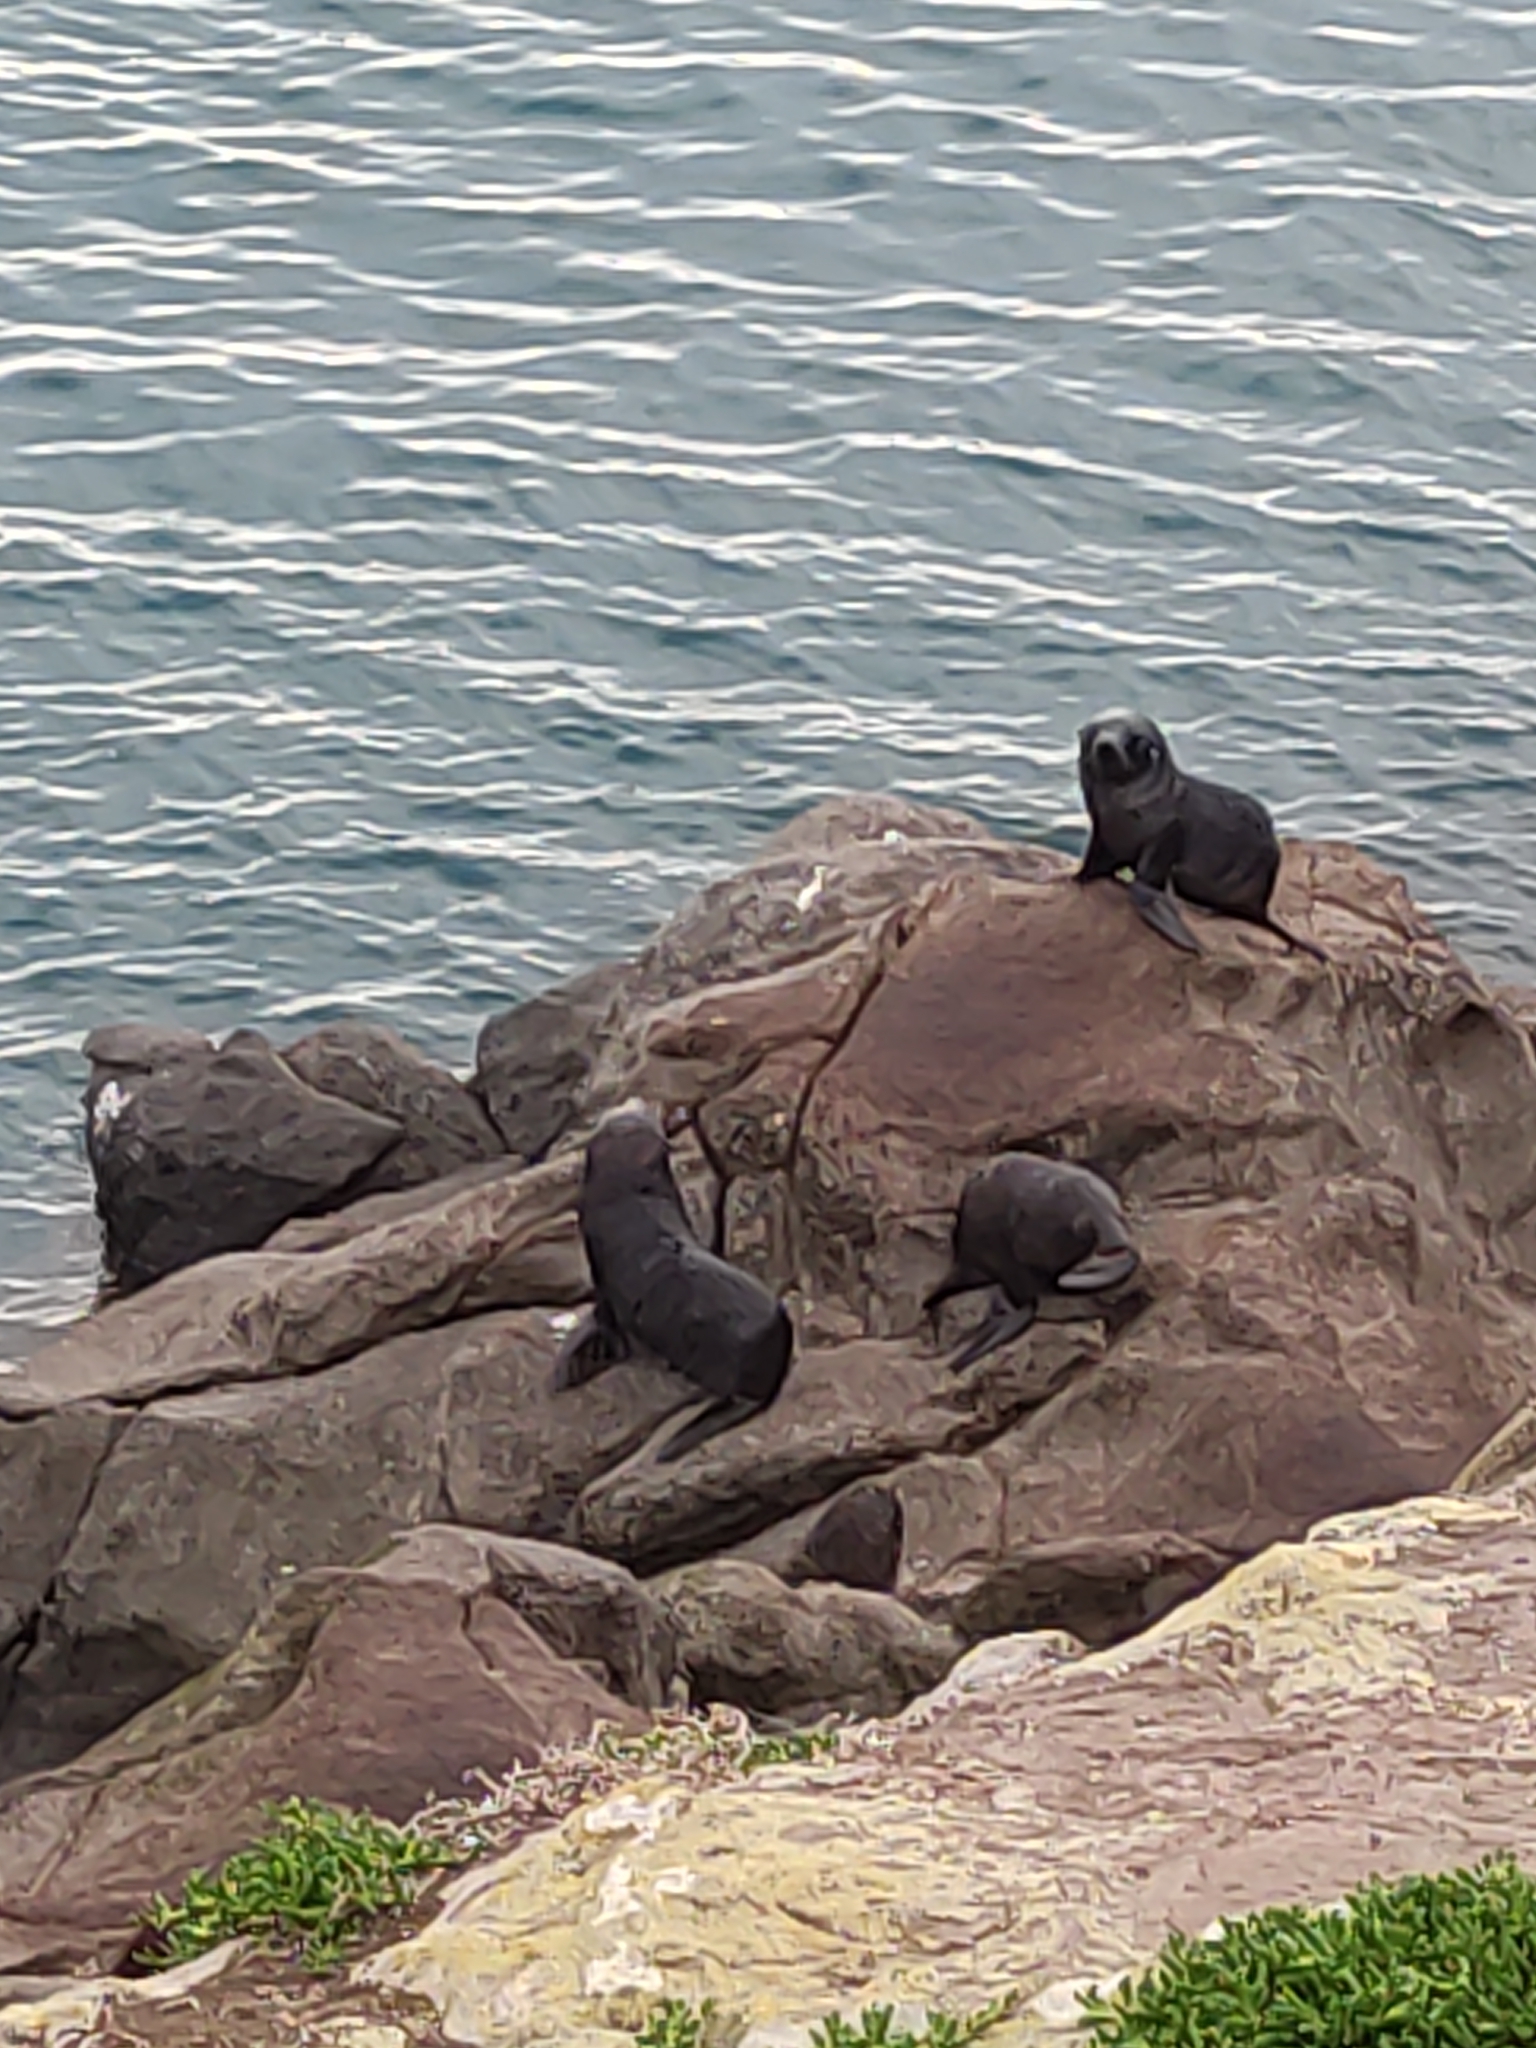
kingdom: Animalia
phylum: Chordata
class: Mammalia
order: Carnivora
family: Otariidae
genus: Arctocephalus
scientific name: Arctocephalus forsteri
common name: New zealand fur seal
